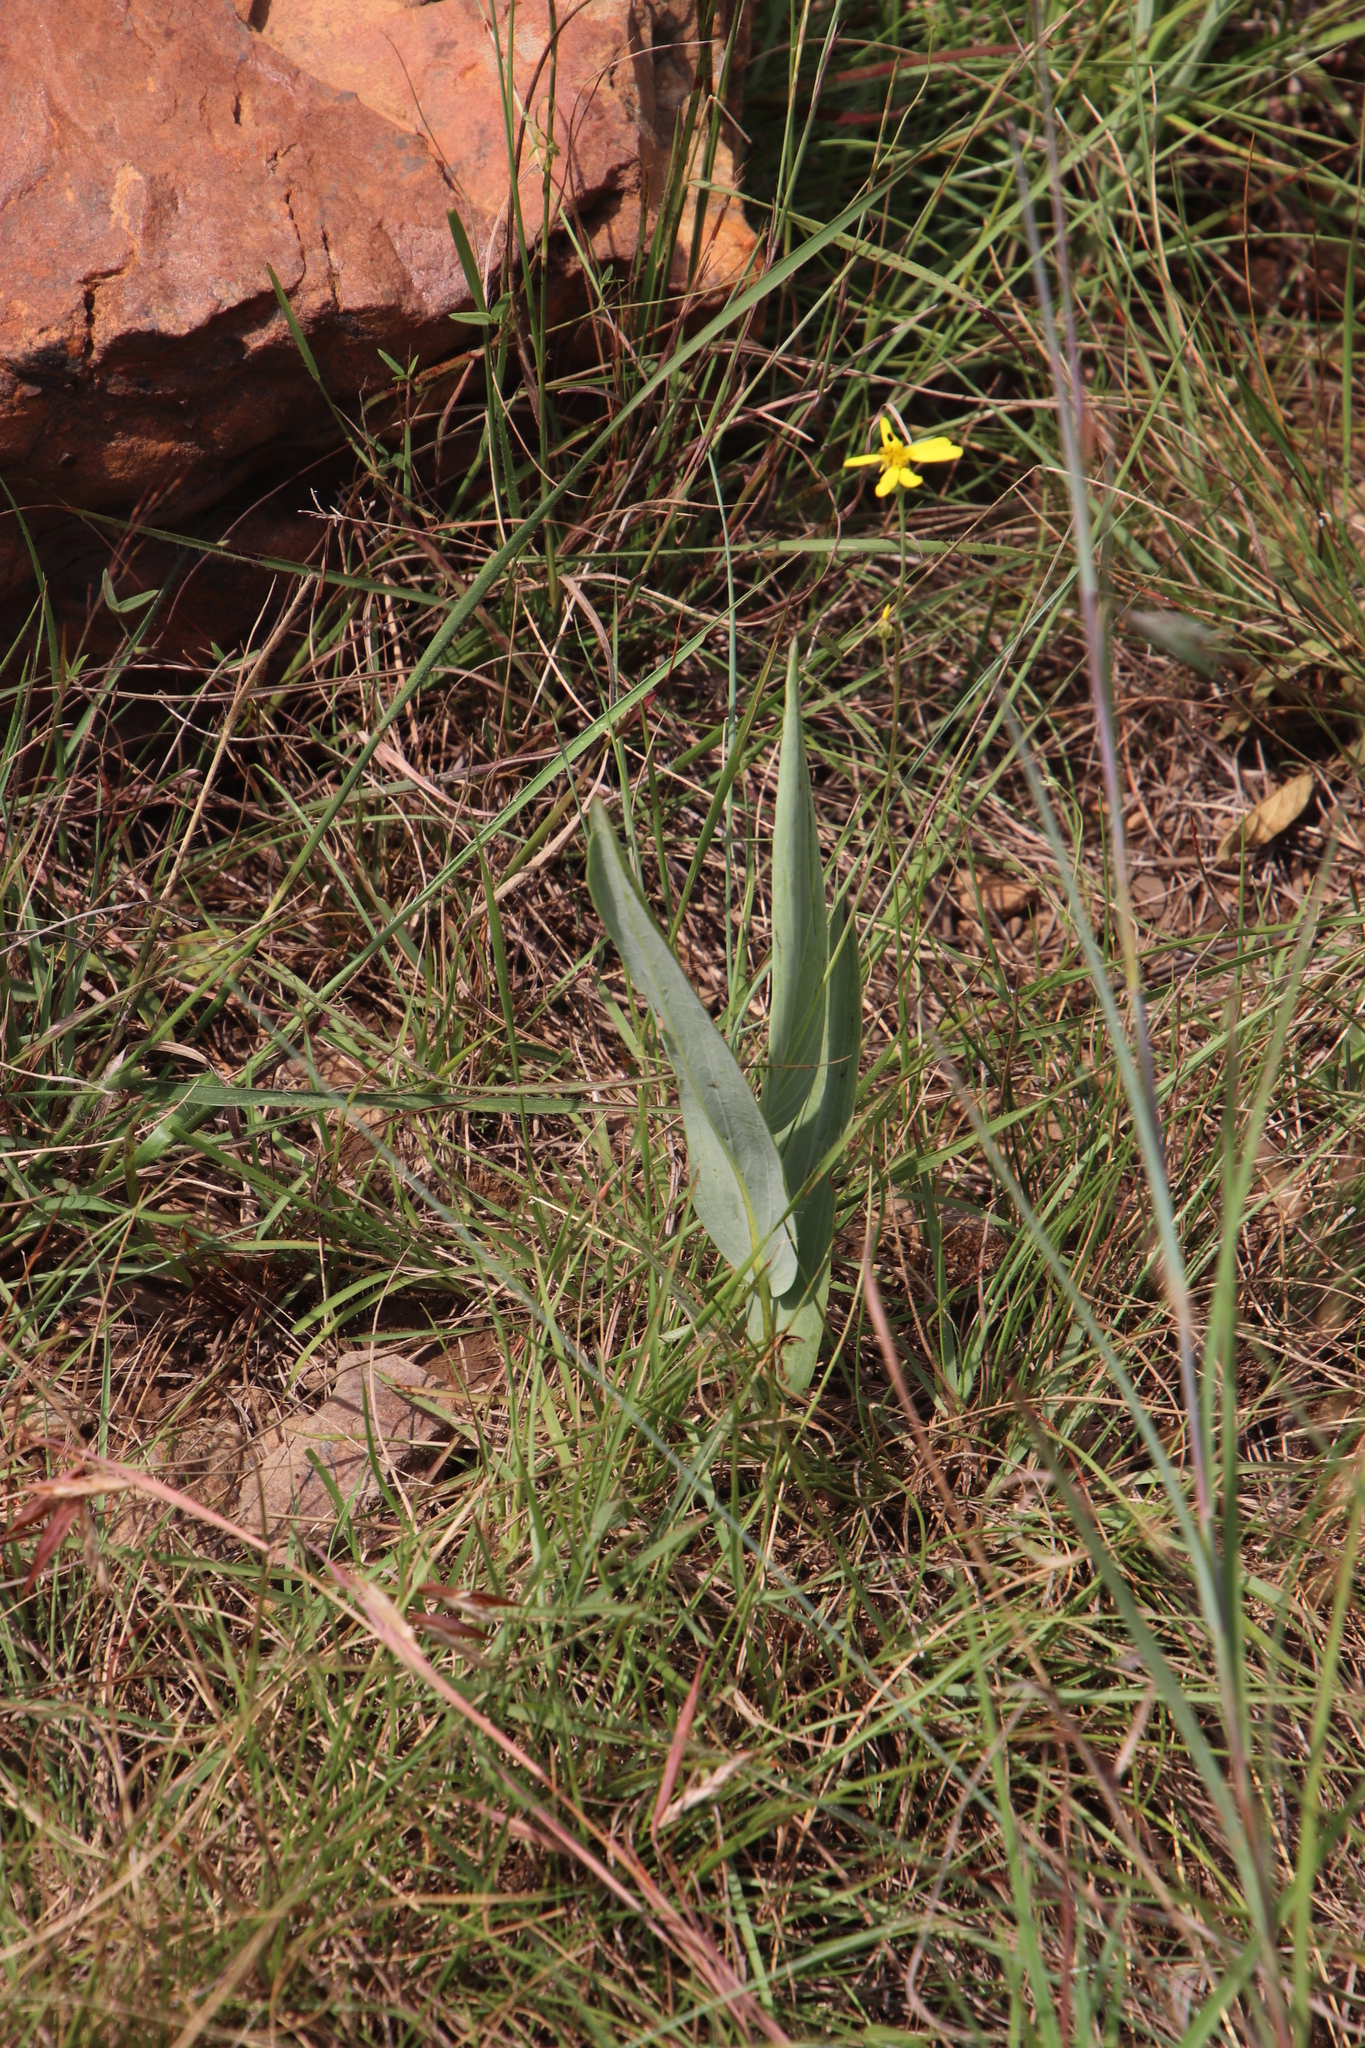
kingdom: Plantae
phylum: Tracheophyta
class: Magnoliopsida
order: Asterales
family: Asteraceae
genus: Senecio
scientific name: Senecio latifolius
